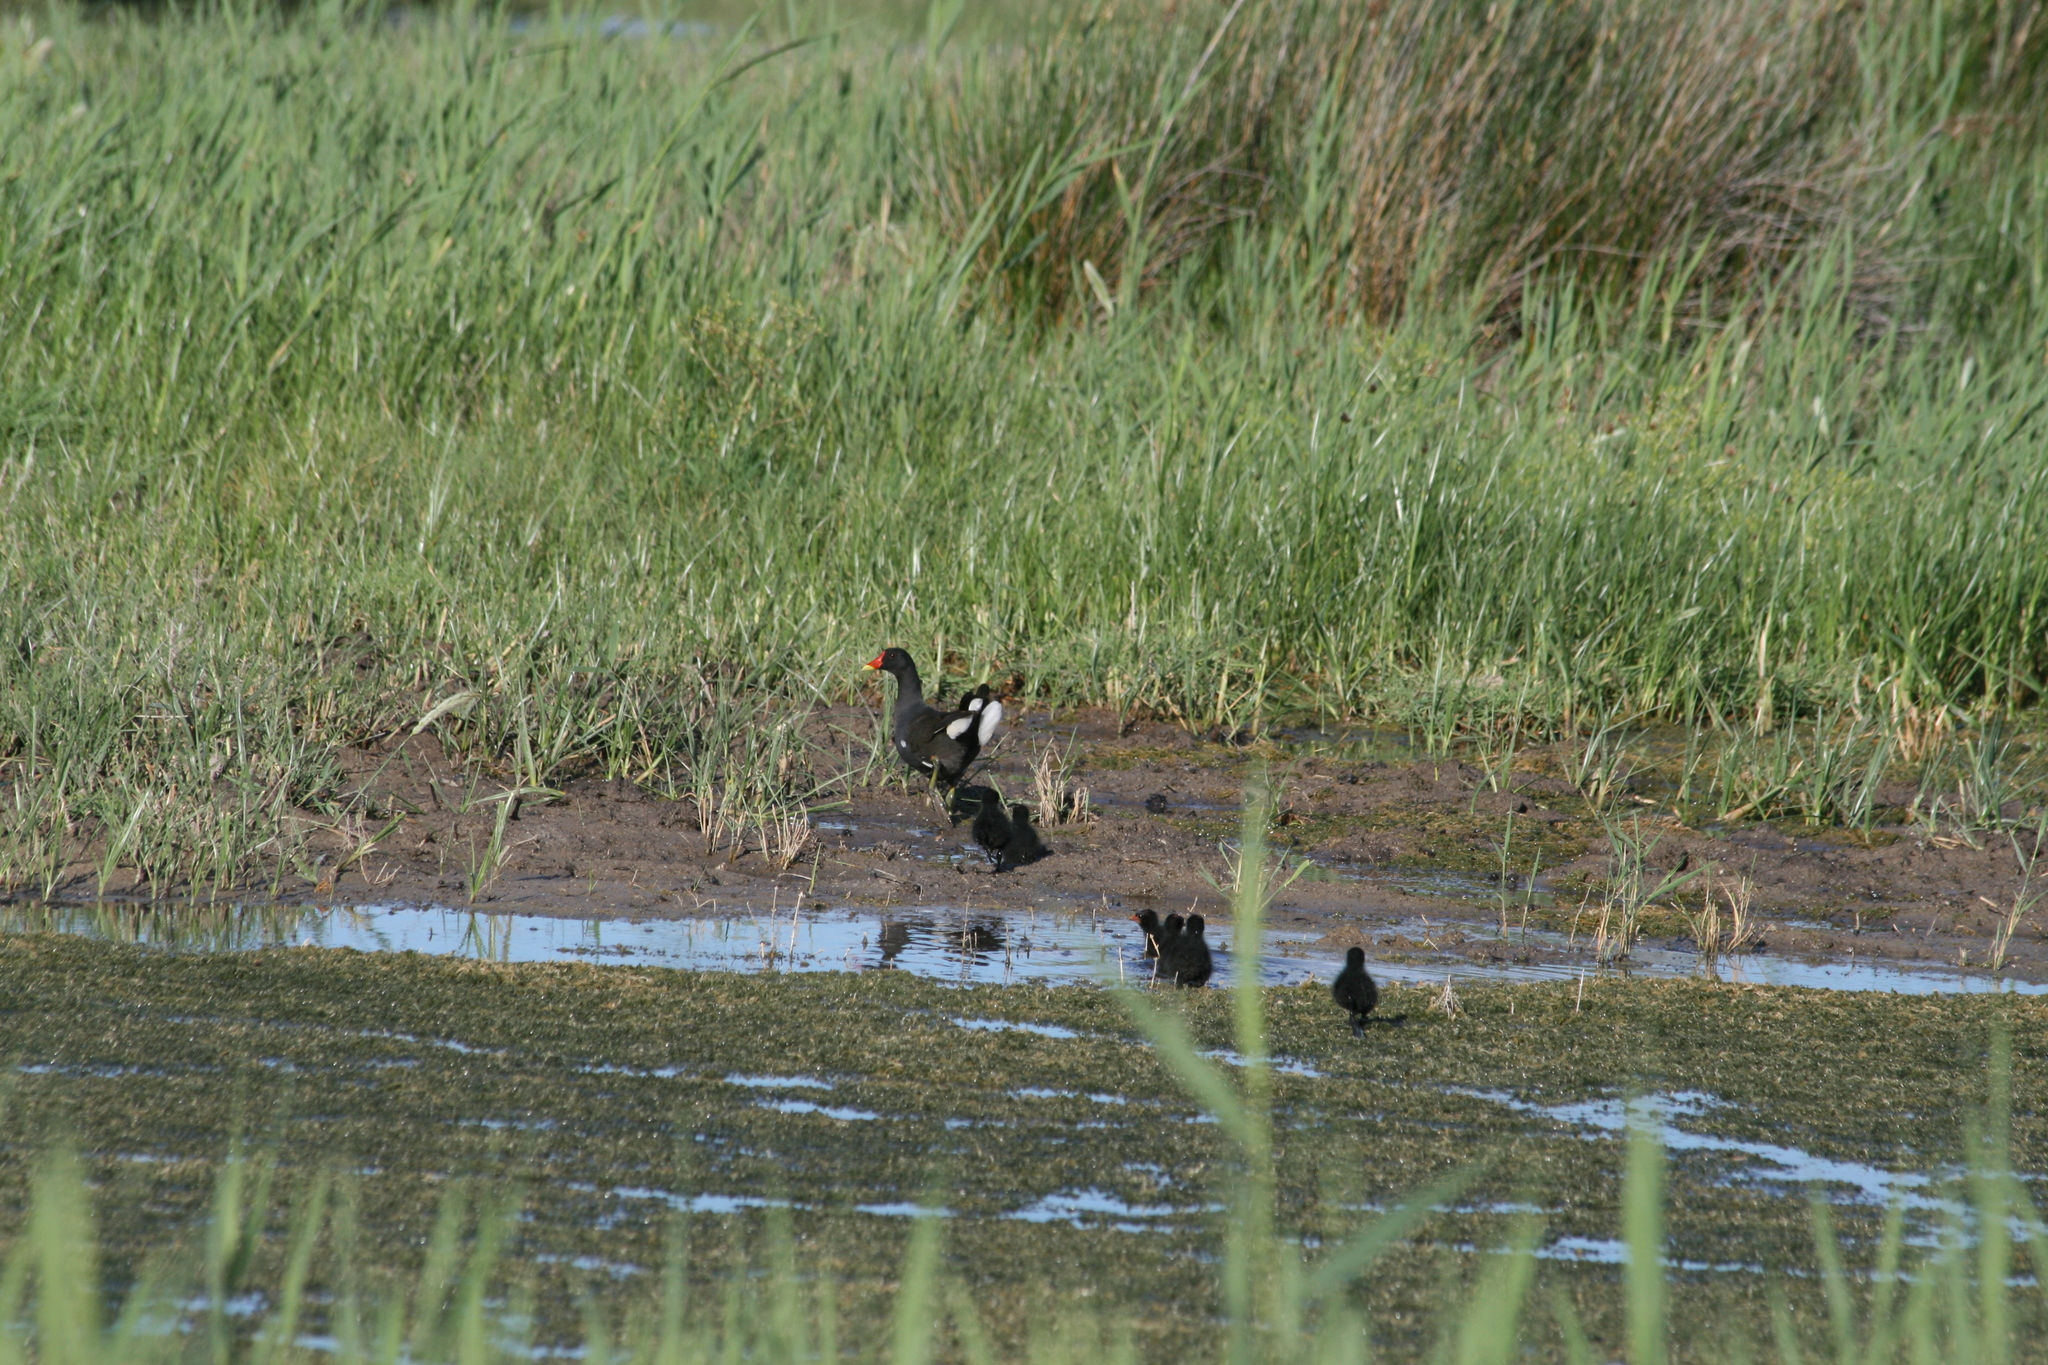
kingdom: Animalia
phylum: Chordata
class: Aves
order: Gruiformes
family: Rallidae
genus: Gallinula
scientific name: Gallinula chloropus
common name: Common moorhen
